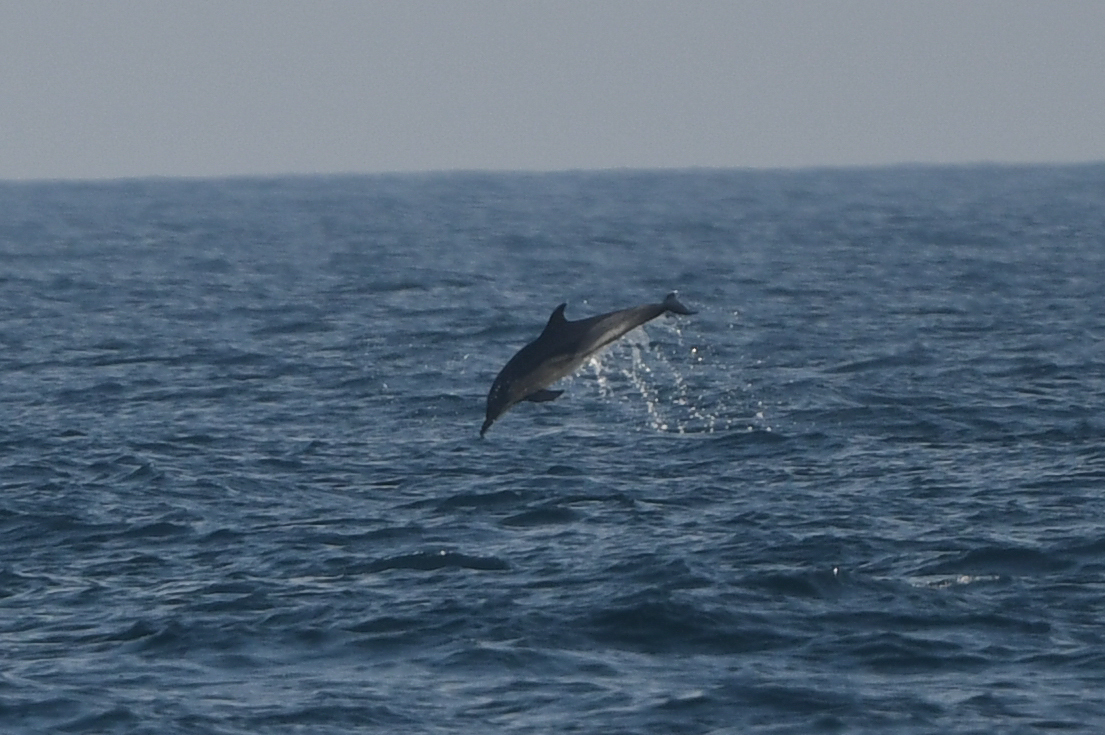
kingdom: Animalia
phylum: Chordata
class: Mammalia
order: Cetacea
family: Delphinidae
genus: Delphinus
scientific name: Delphinus delphis
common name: Common dolphin
